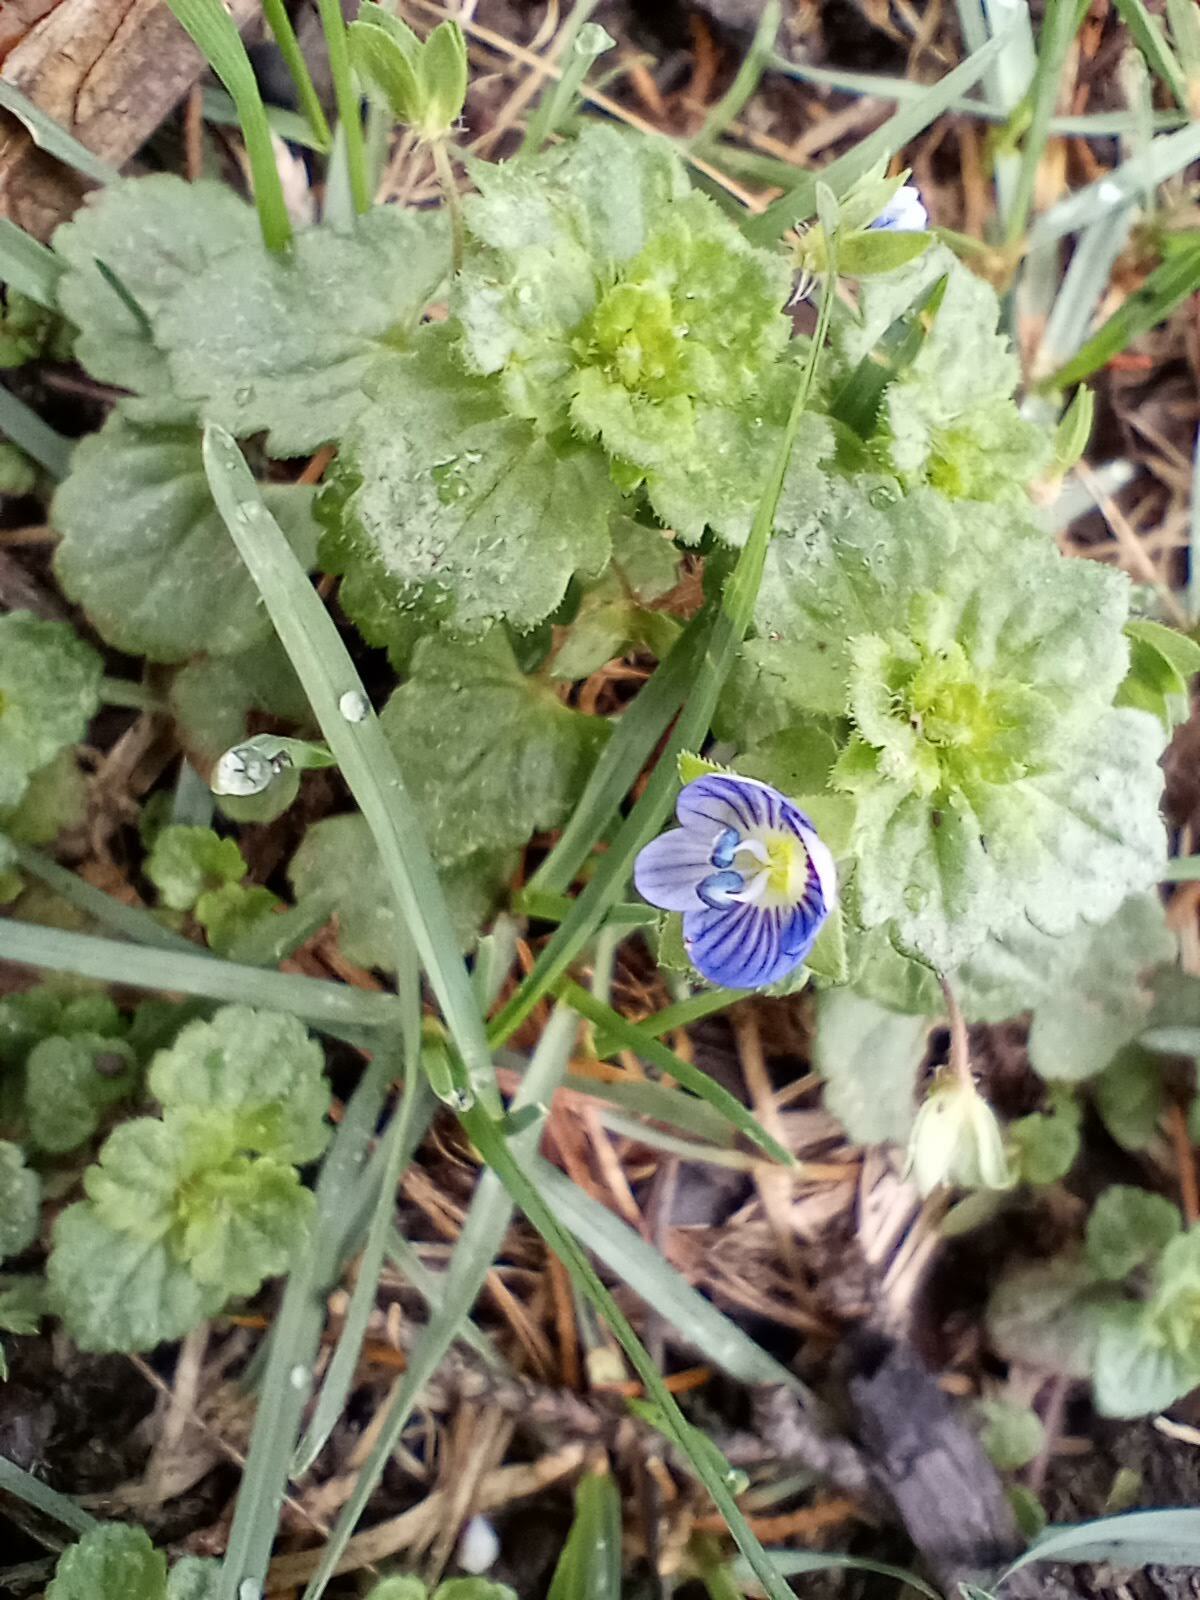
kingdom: Plantae
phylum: Tracheophyta
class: Magnoliopsida
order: Lamiales
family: Plantaginaceae
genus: Veronica
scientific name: Veronica persica
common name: Common field-speedwell
